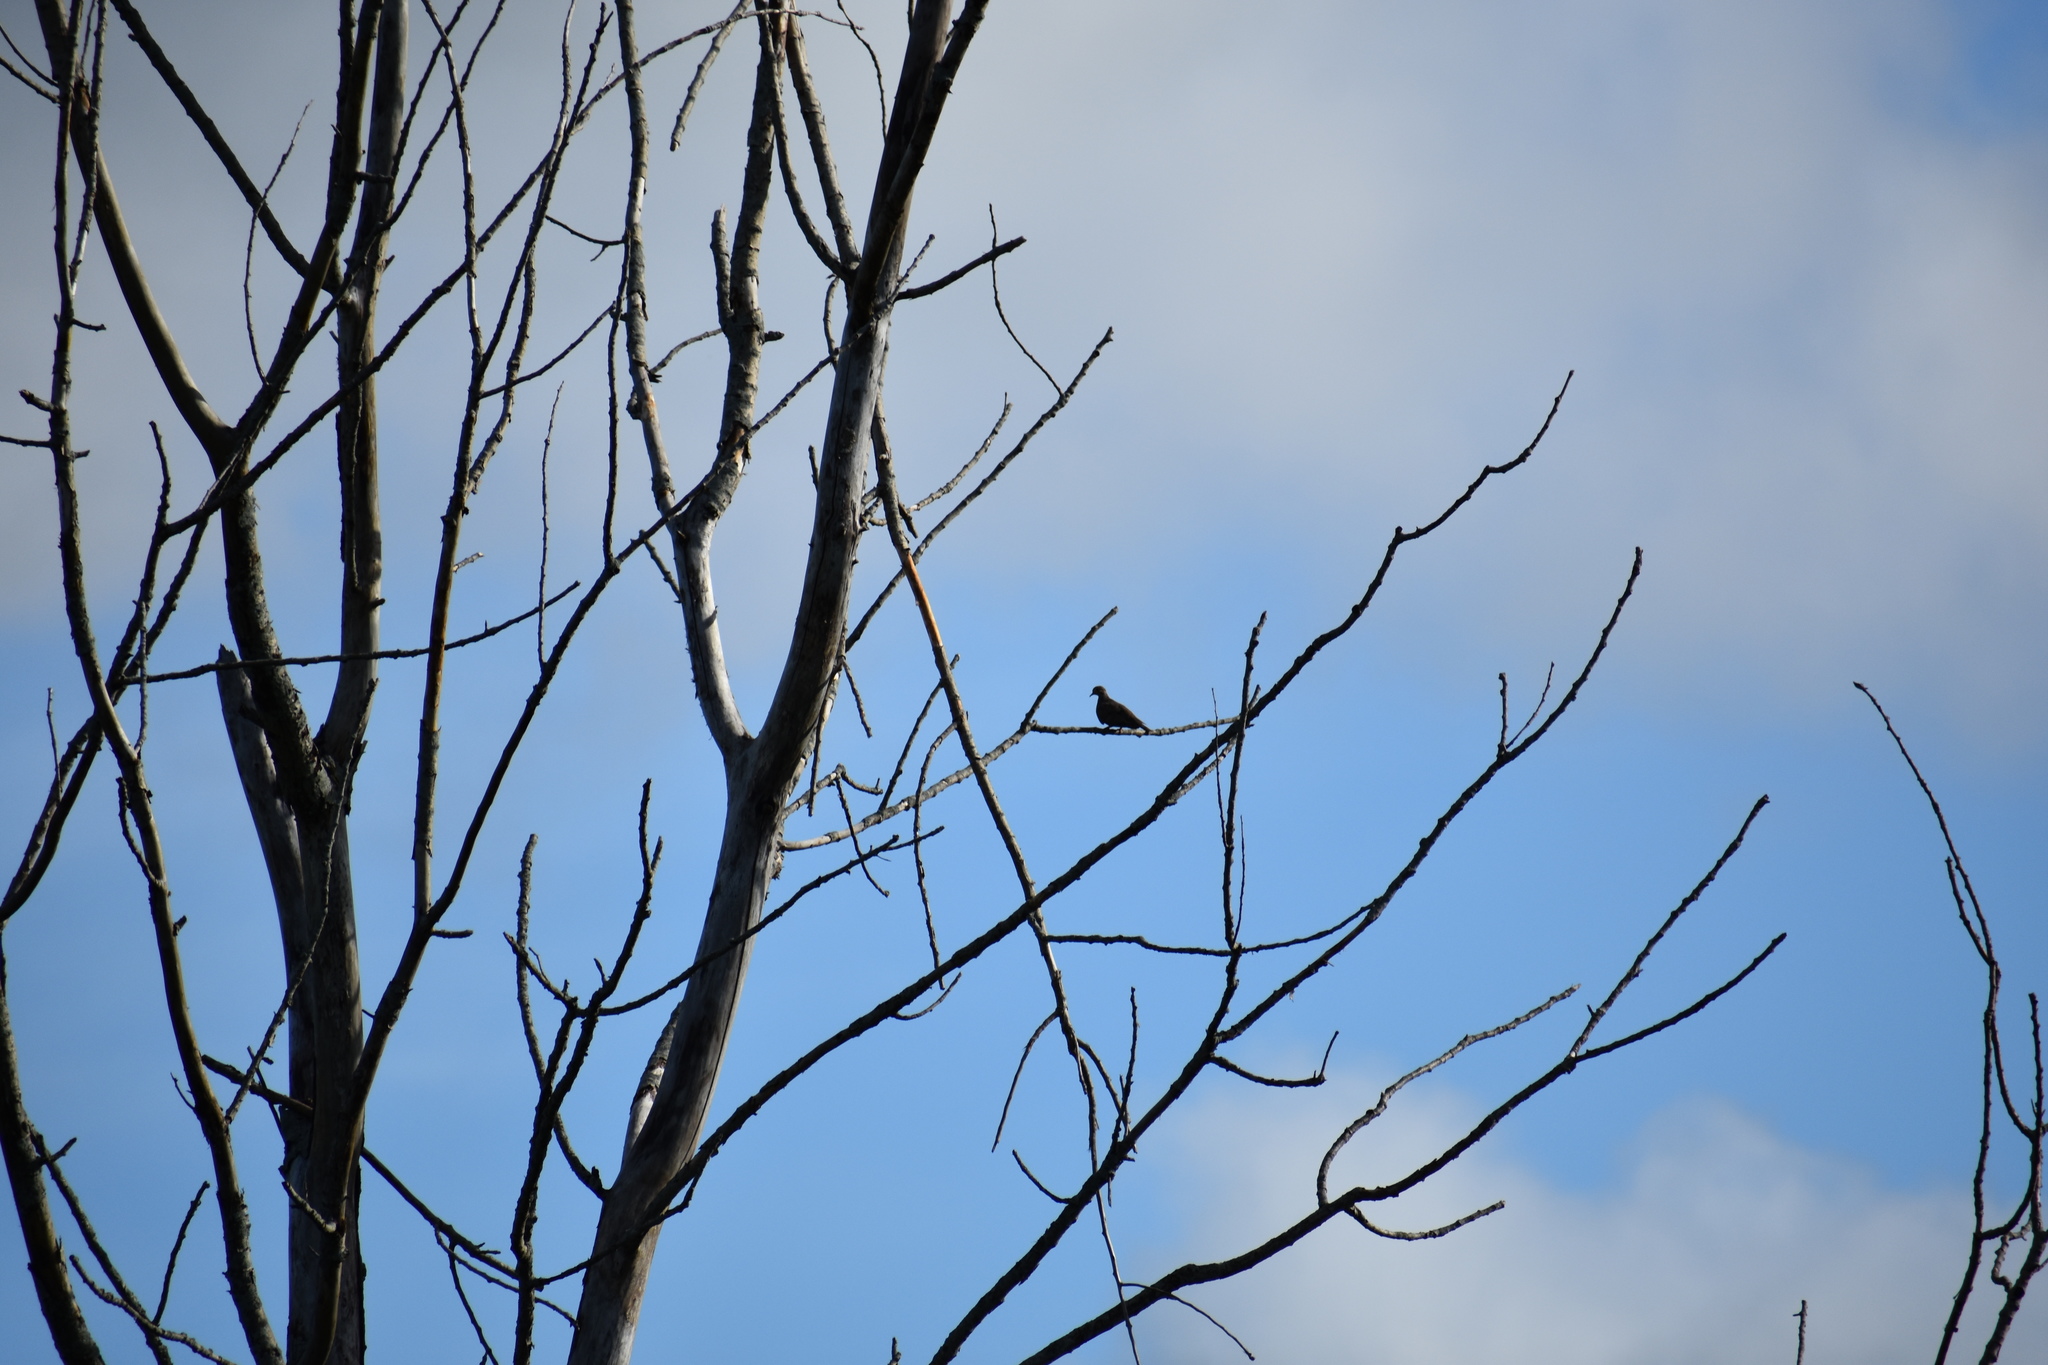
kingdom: Animalia
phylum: Chordata
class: Aves
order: Columbiformes
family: Columbidae
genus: Zenaida
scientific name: Zenaida macroura
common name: Mourning dove
